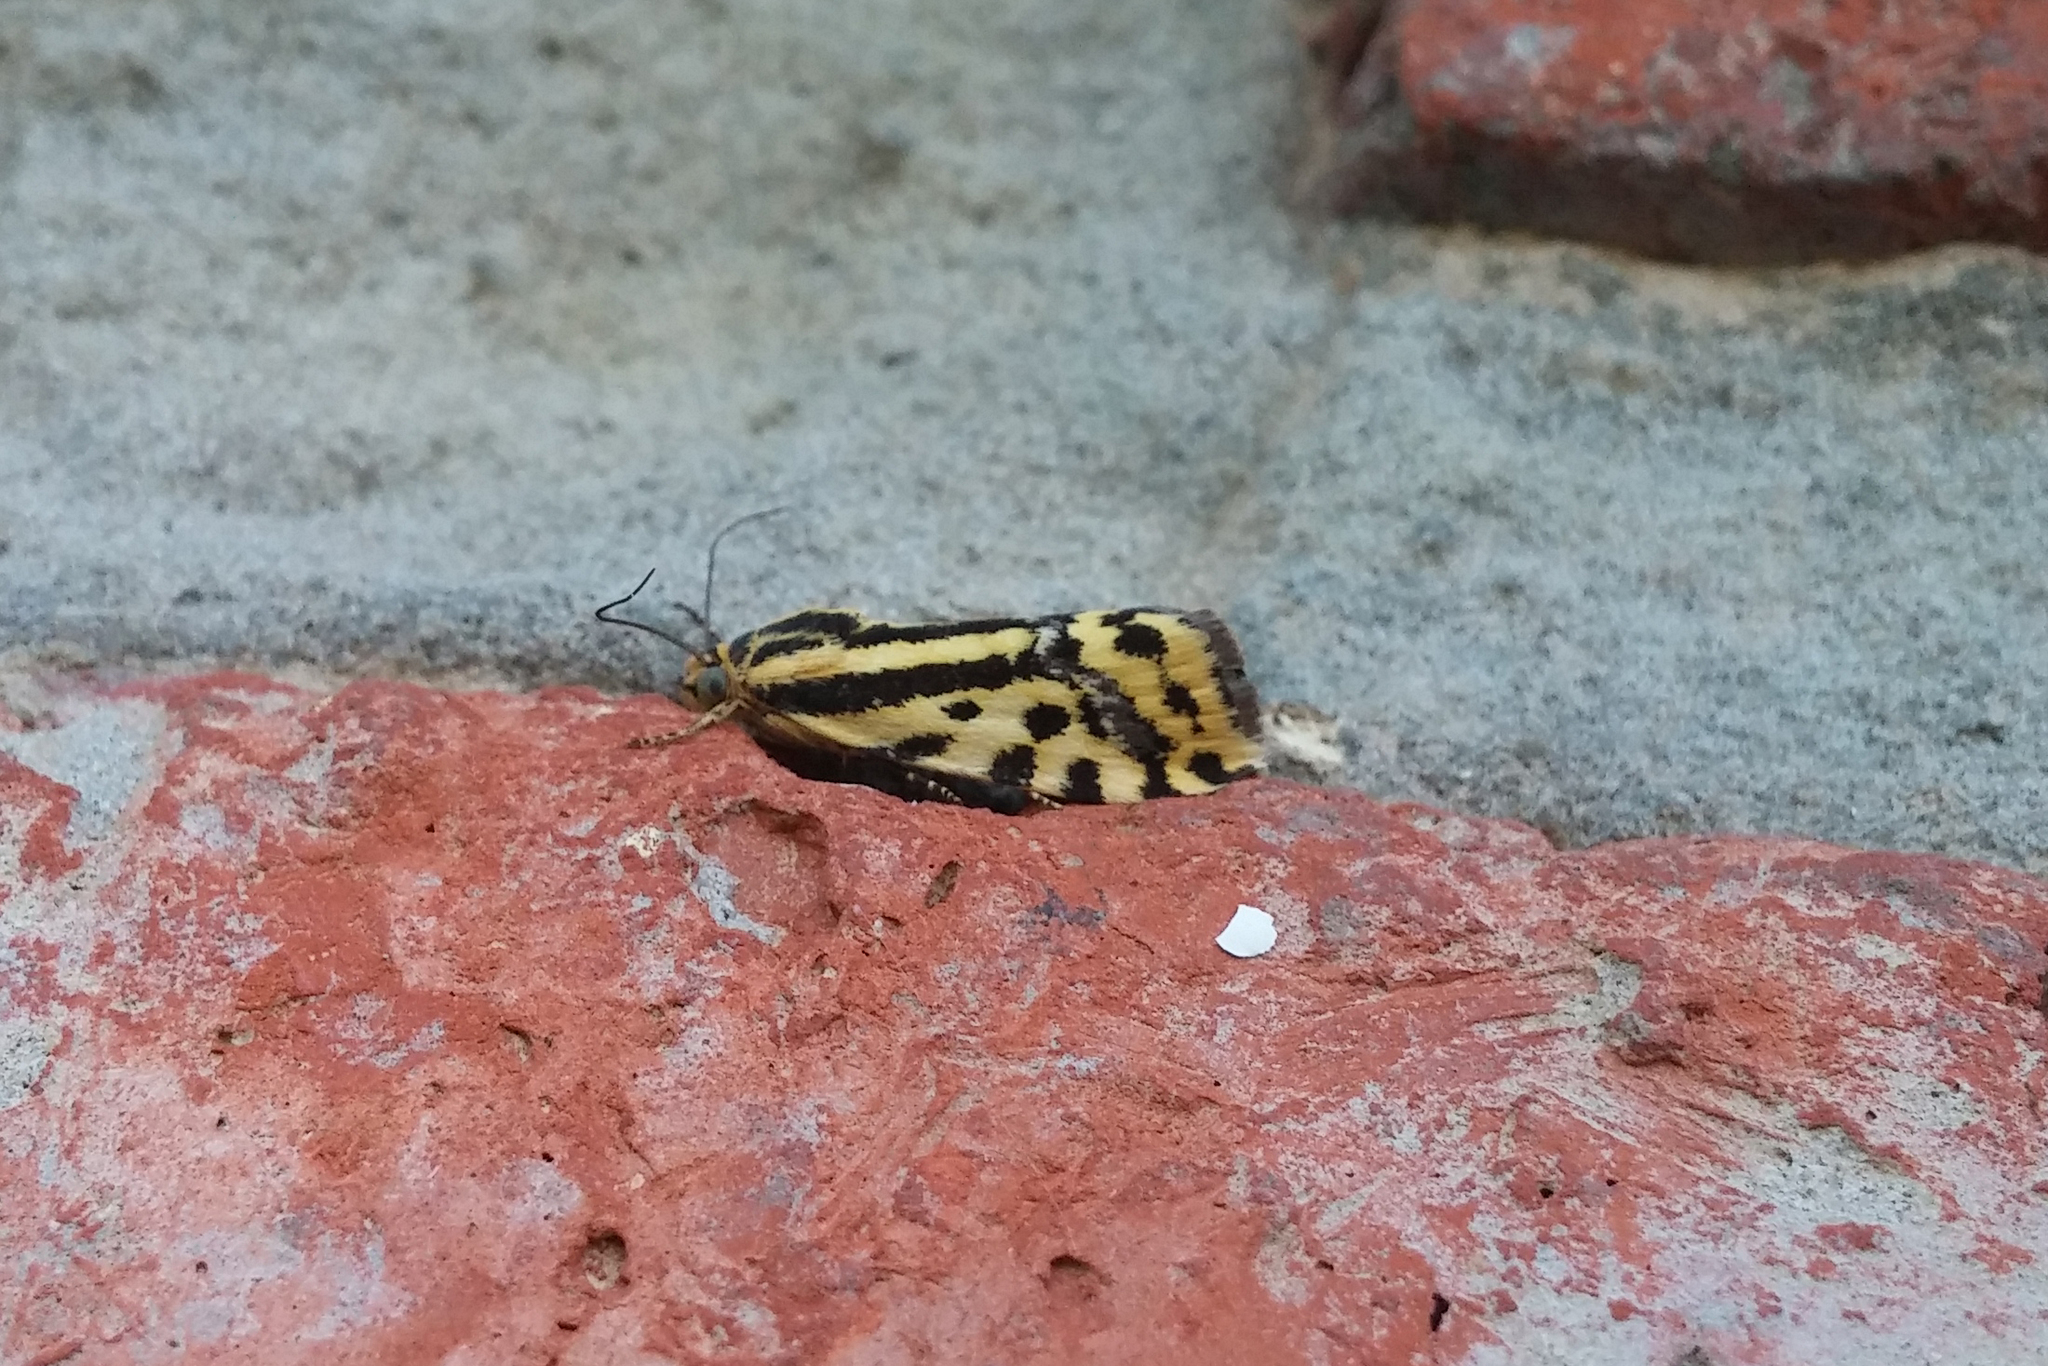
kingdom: Animalia
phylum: Arthropoda
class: Insecta
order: Lepidoptera
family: Noctuidae
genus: Acontia
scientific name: Acontia trabealis
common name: Spotted sulphur
